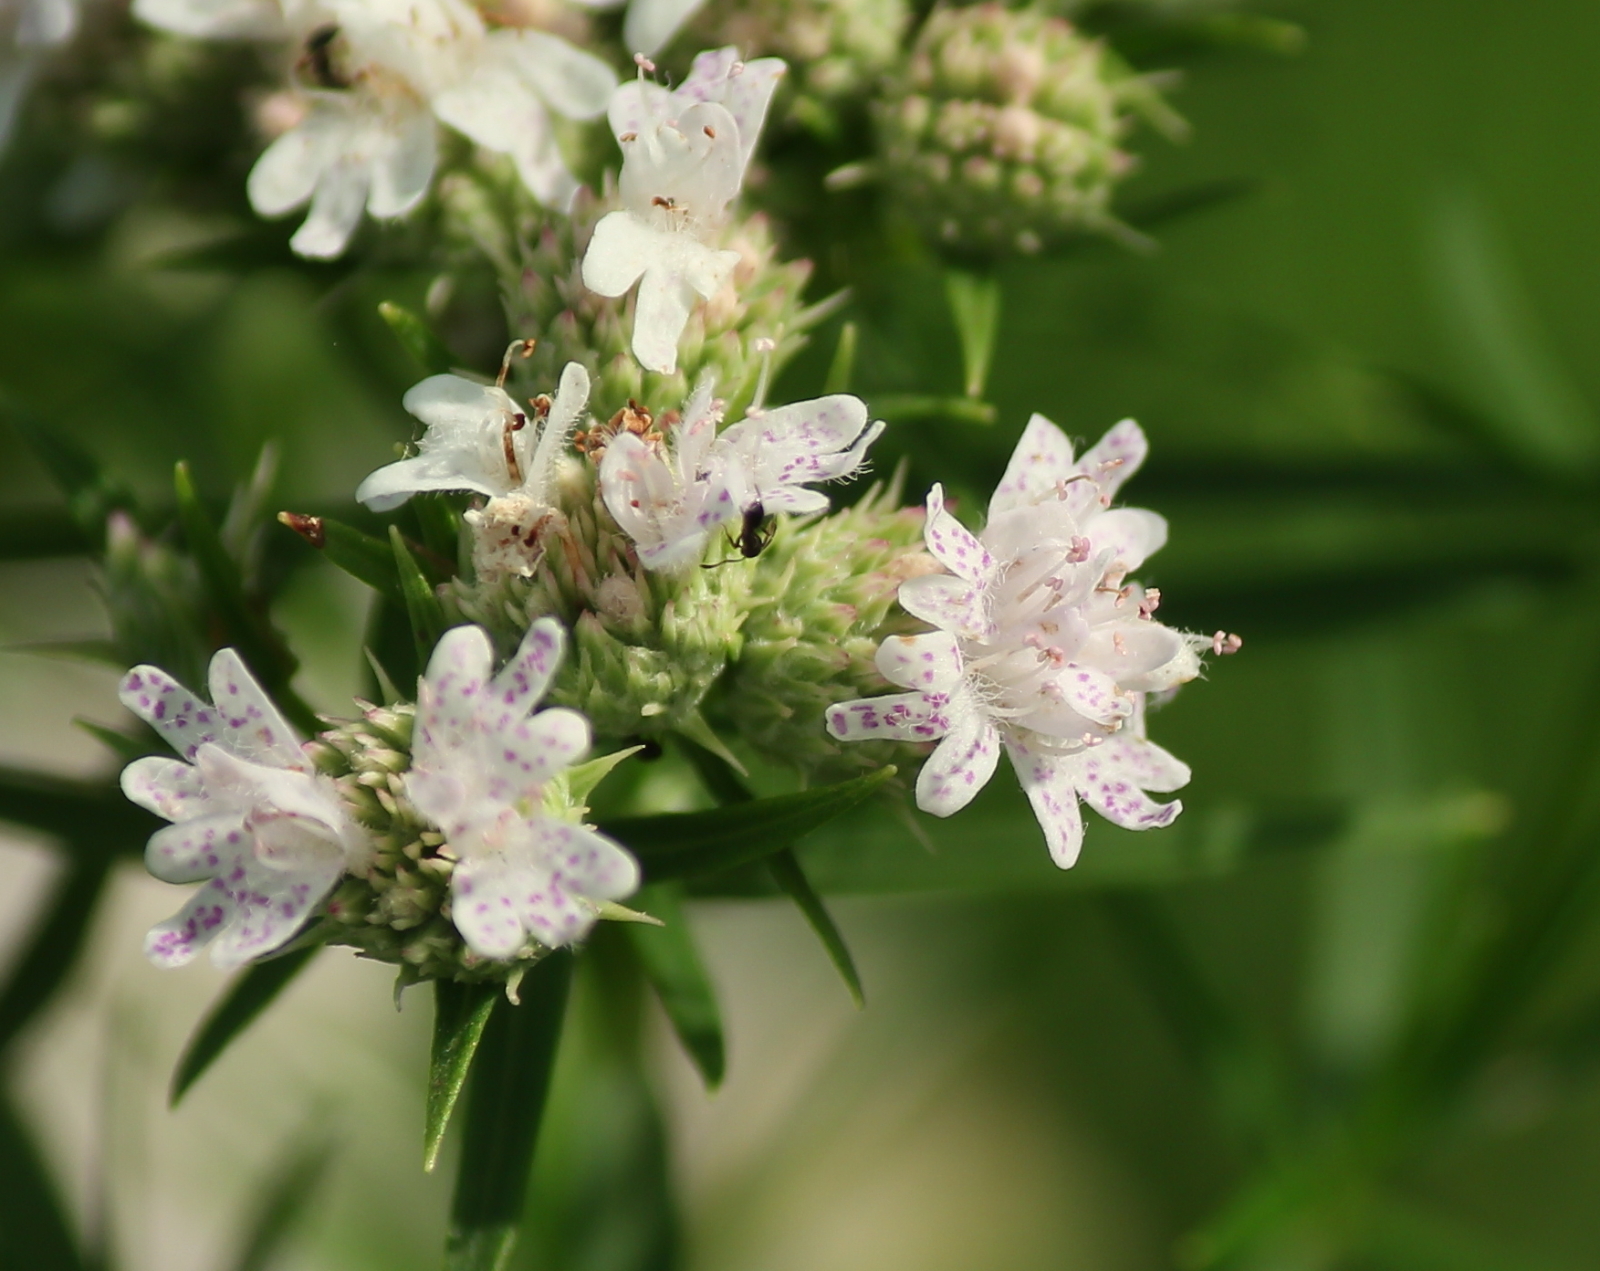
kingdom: Plantae
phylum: Tracheophyta
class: Magnoliopsida
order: Lamiales
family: Lamiaceae
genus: Pycnanthemum
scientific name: Pycnanthemum tenuifolium
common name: Narrow-leaf mountain-mint
